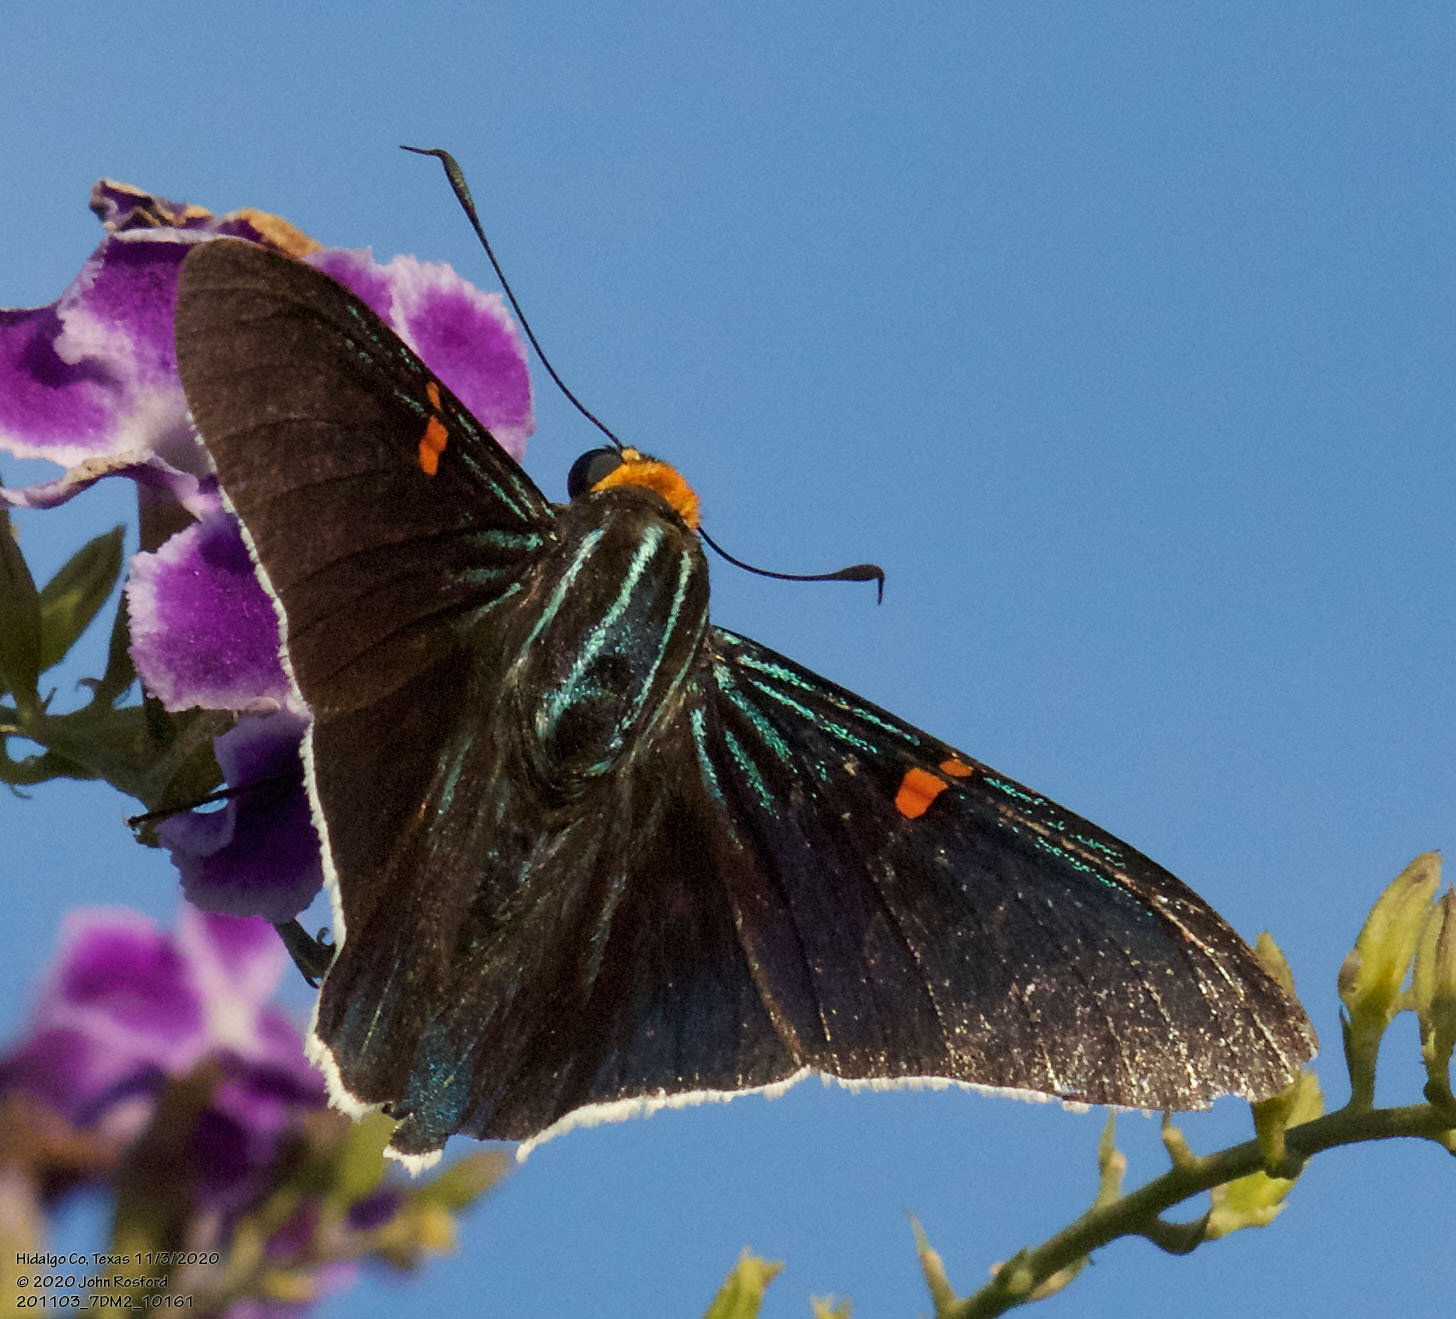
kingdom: Animalia
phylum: Arthropoda
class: Insecta
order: Lepidoptera
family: Hesperiidae
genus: Phocides
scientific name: Phocides lilea
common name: Guava skipper
